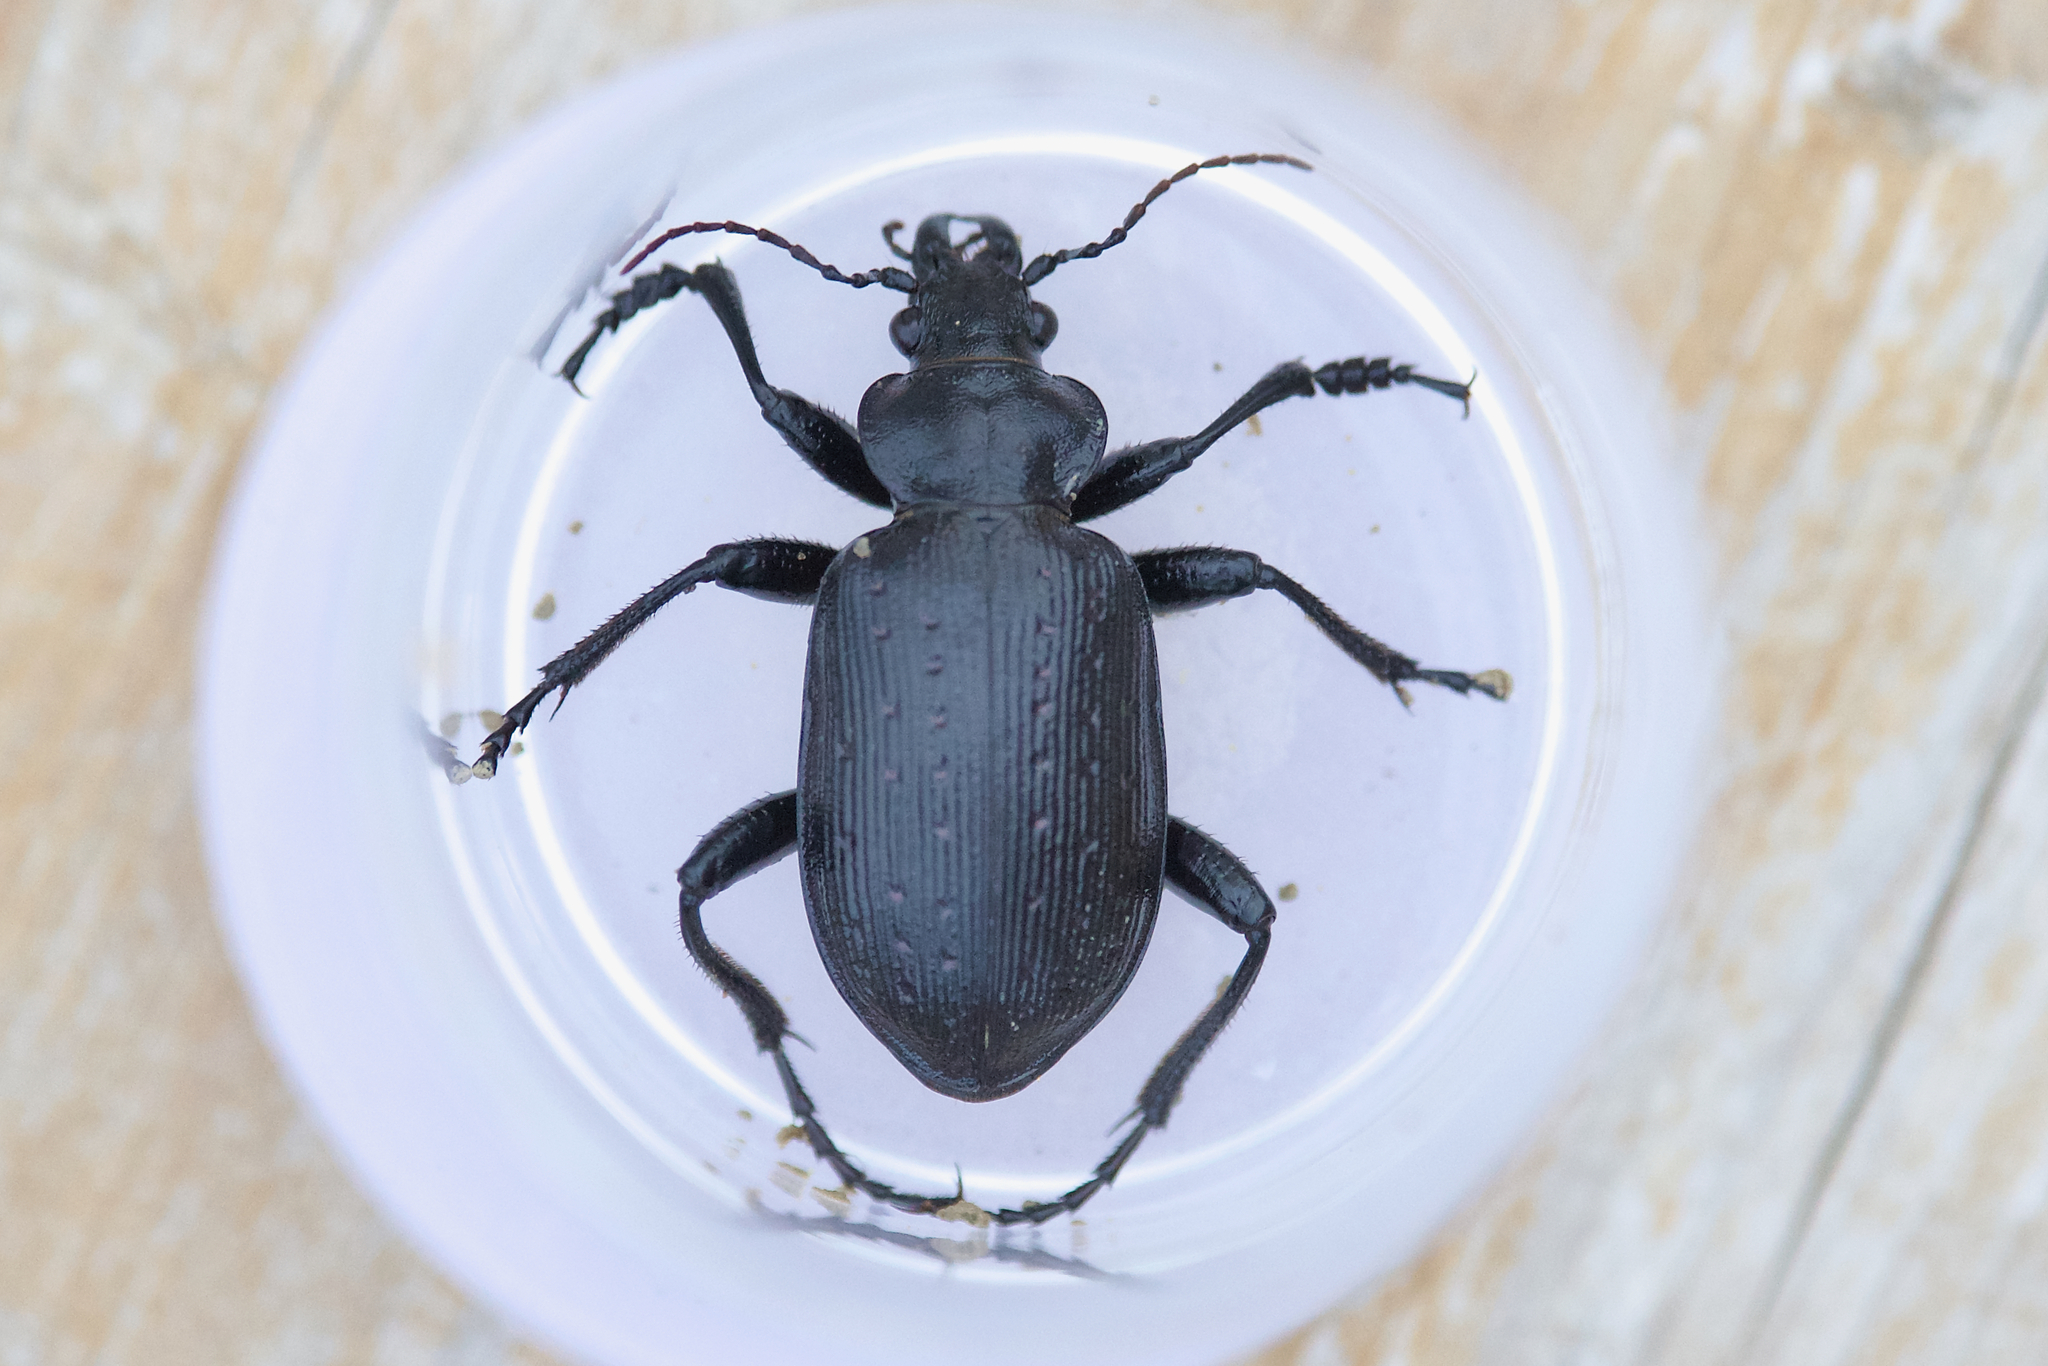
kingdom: Animalia
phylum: Arthropoda
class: Insecta
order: Coleoptera
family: Carabidae
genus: Calosoma
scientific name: Calosoma frigidum
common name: Cold-country caterpillar hunter
